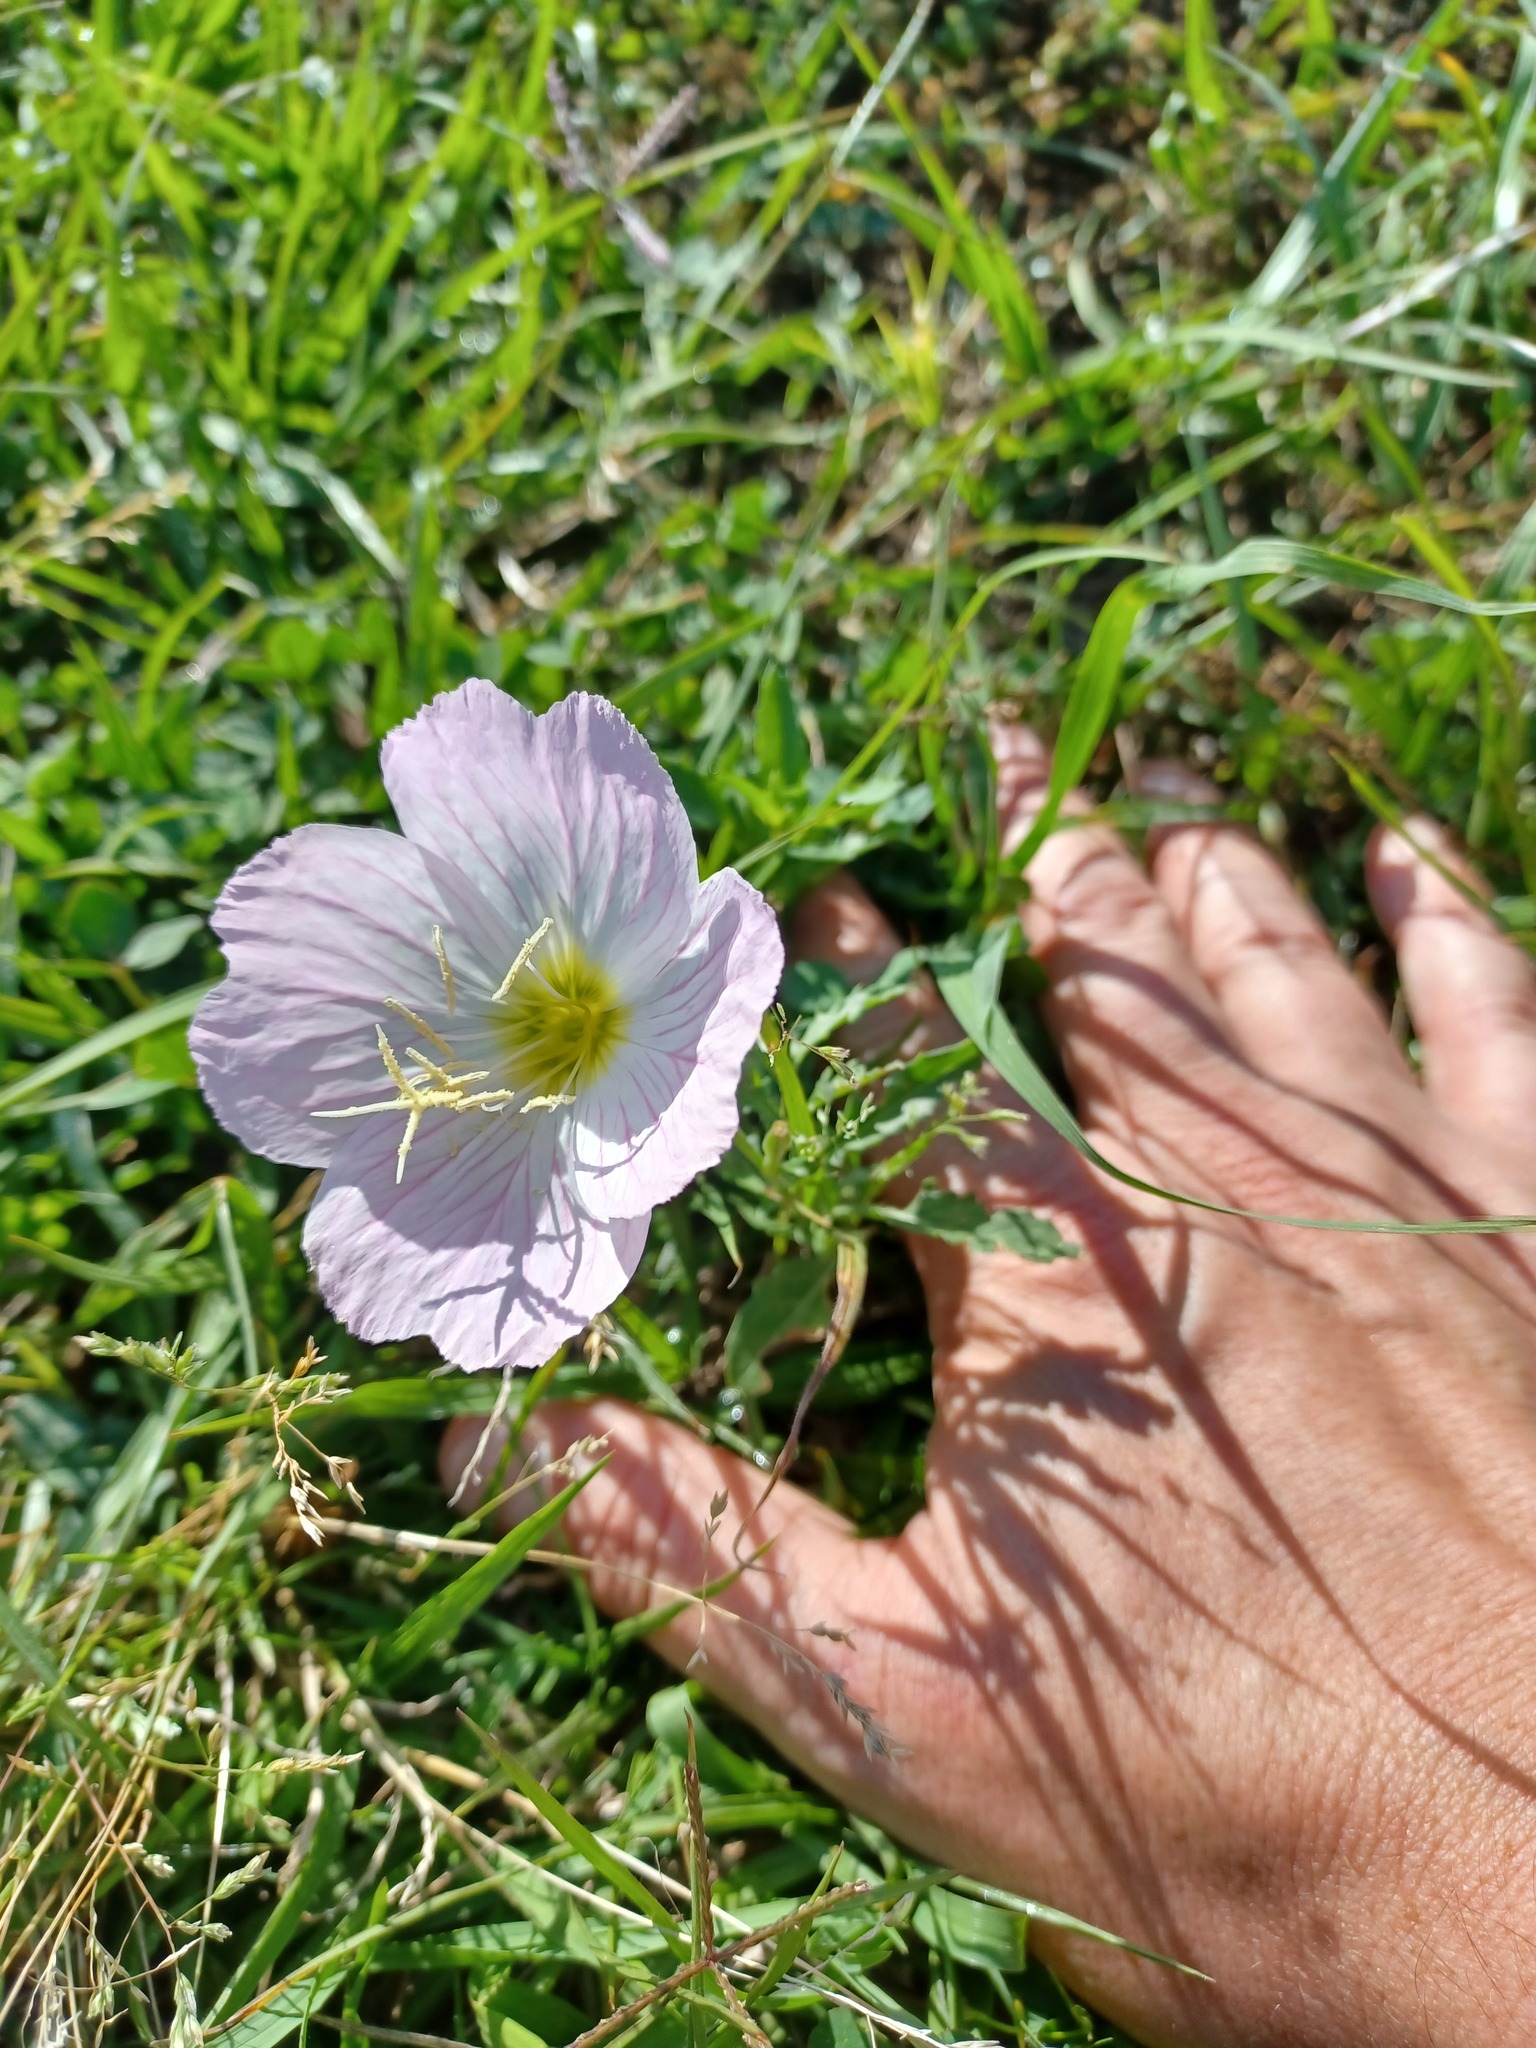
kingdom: Plantae
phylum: Tracheophyta
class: Magnoliopsida
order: Myrtales
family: Onagraceae
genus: Oenothera
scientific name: Oenothera speciosa
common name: White evening-primrose
